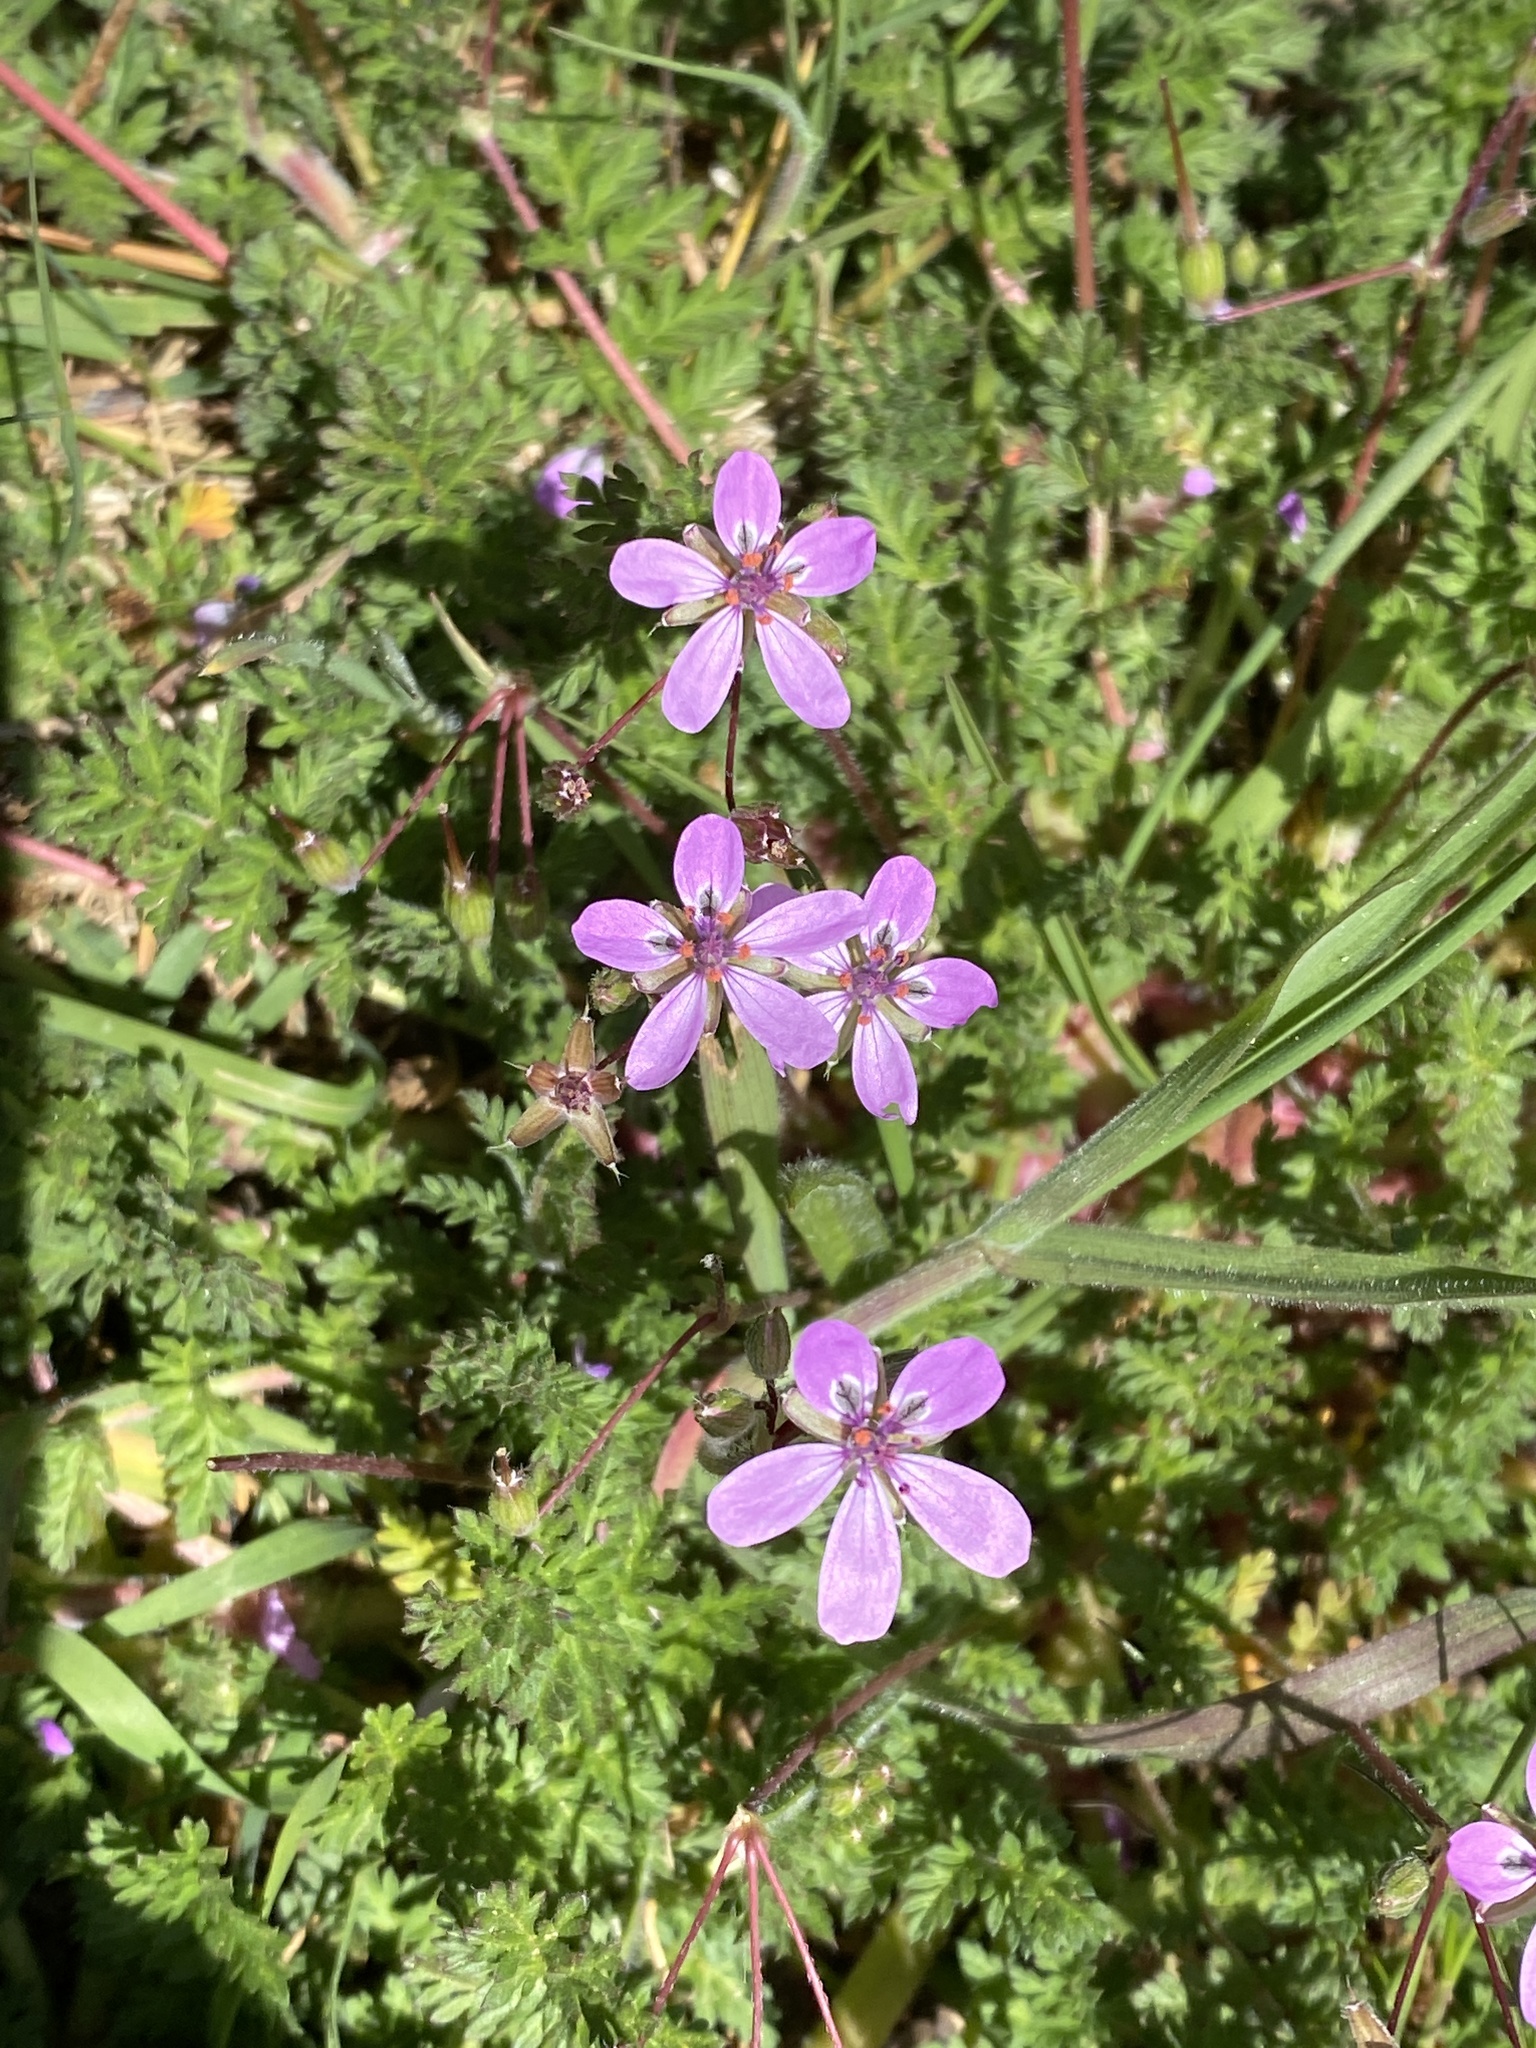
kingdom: Plantae
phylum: Tracheophyta
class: Magnoliopsida
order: Geraniales
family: Geraniaceae
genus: Erodium
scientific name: Erodium cicutarium
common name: Common stork's-bill
